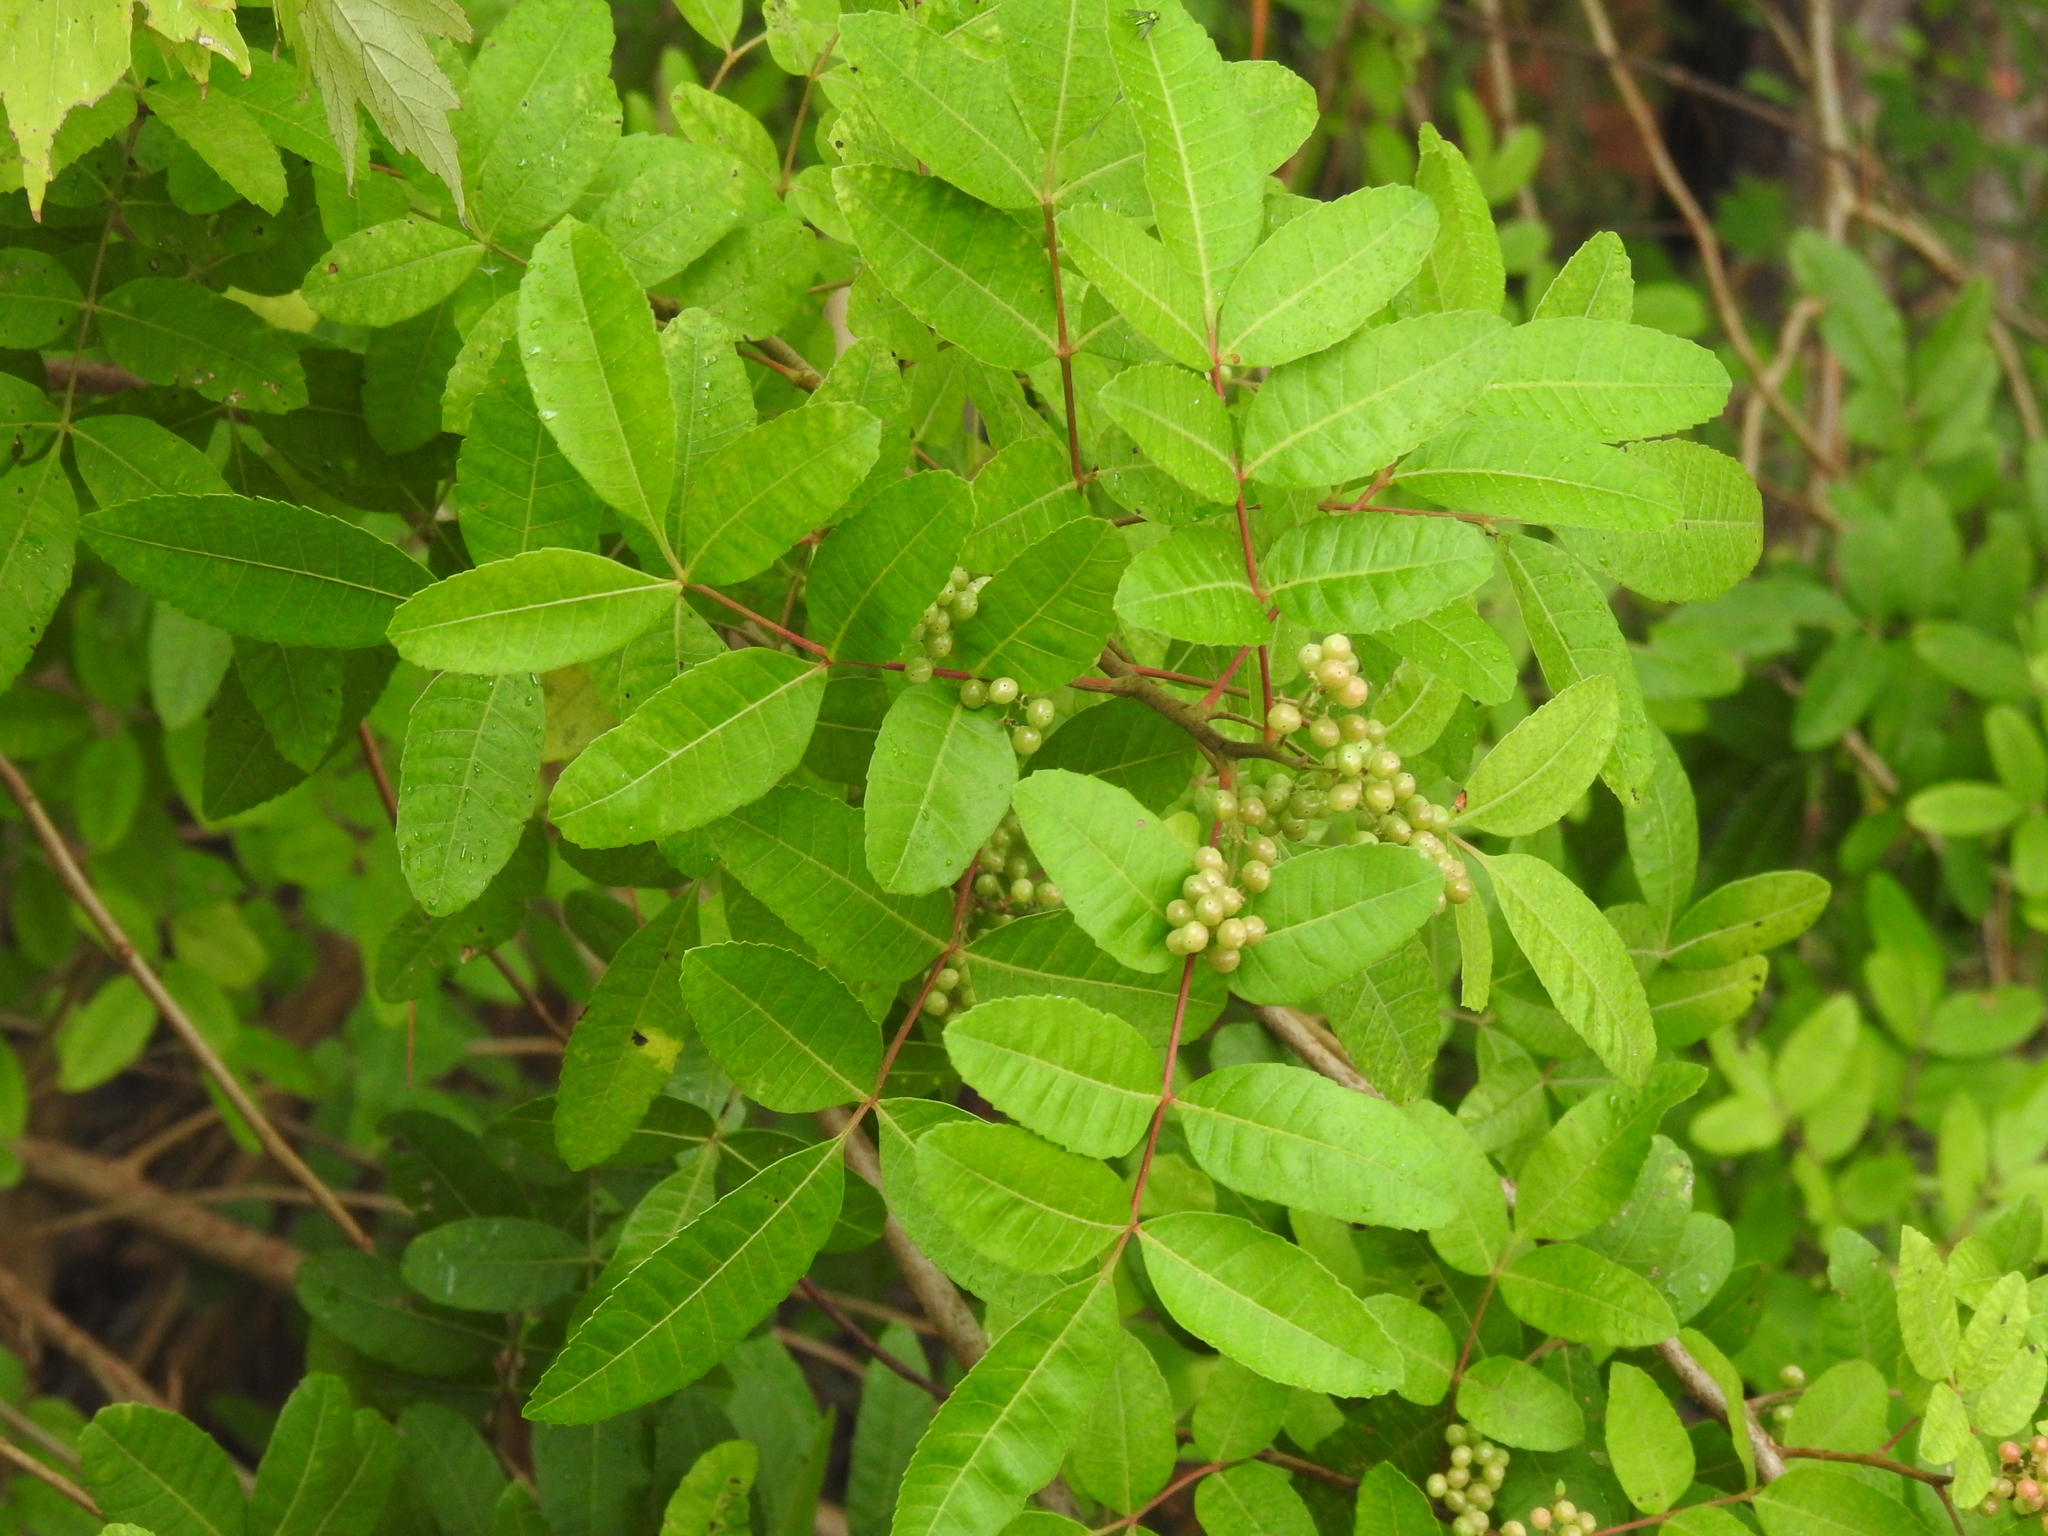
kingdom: Plantae
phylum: Tracheophyta
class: Magnoliopsida
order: Sapindales
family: Anacardiaceae
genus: Schinus
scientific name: Schinus terebinthifolia
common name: Brazilian peppertree
